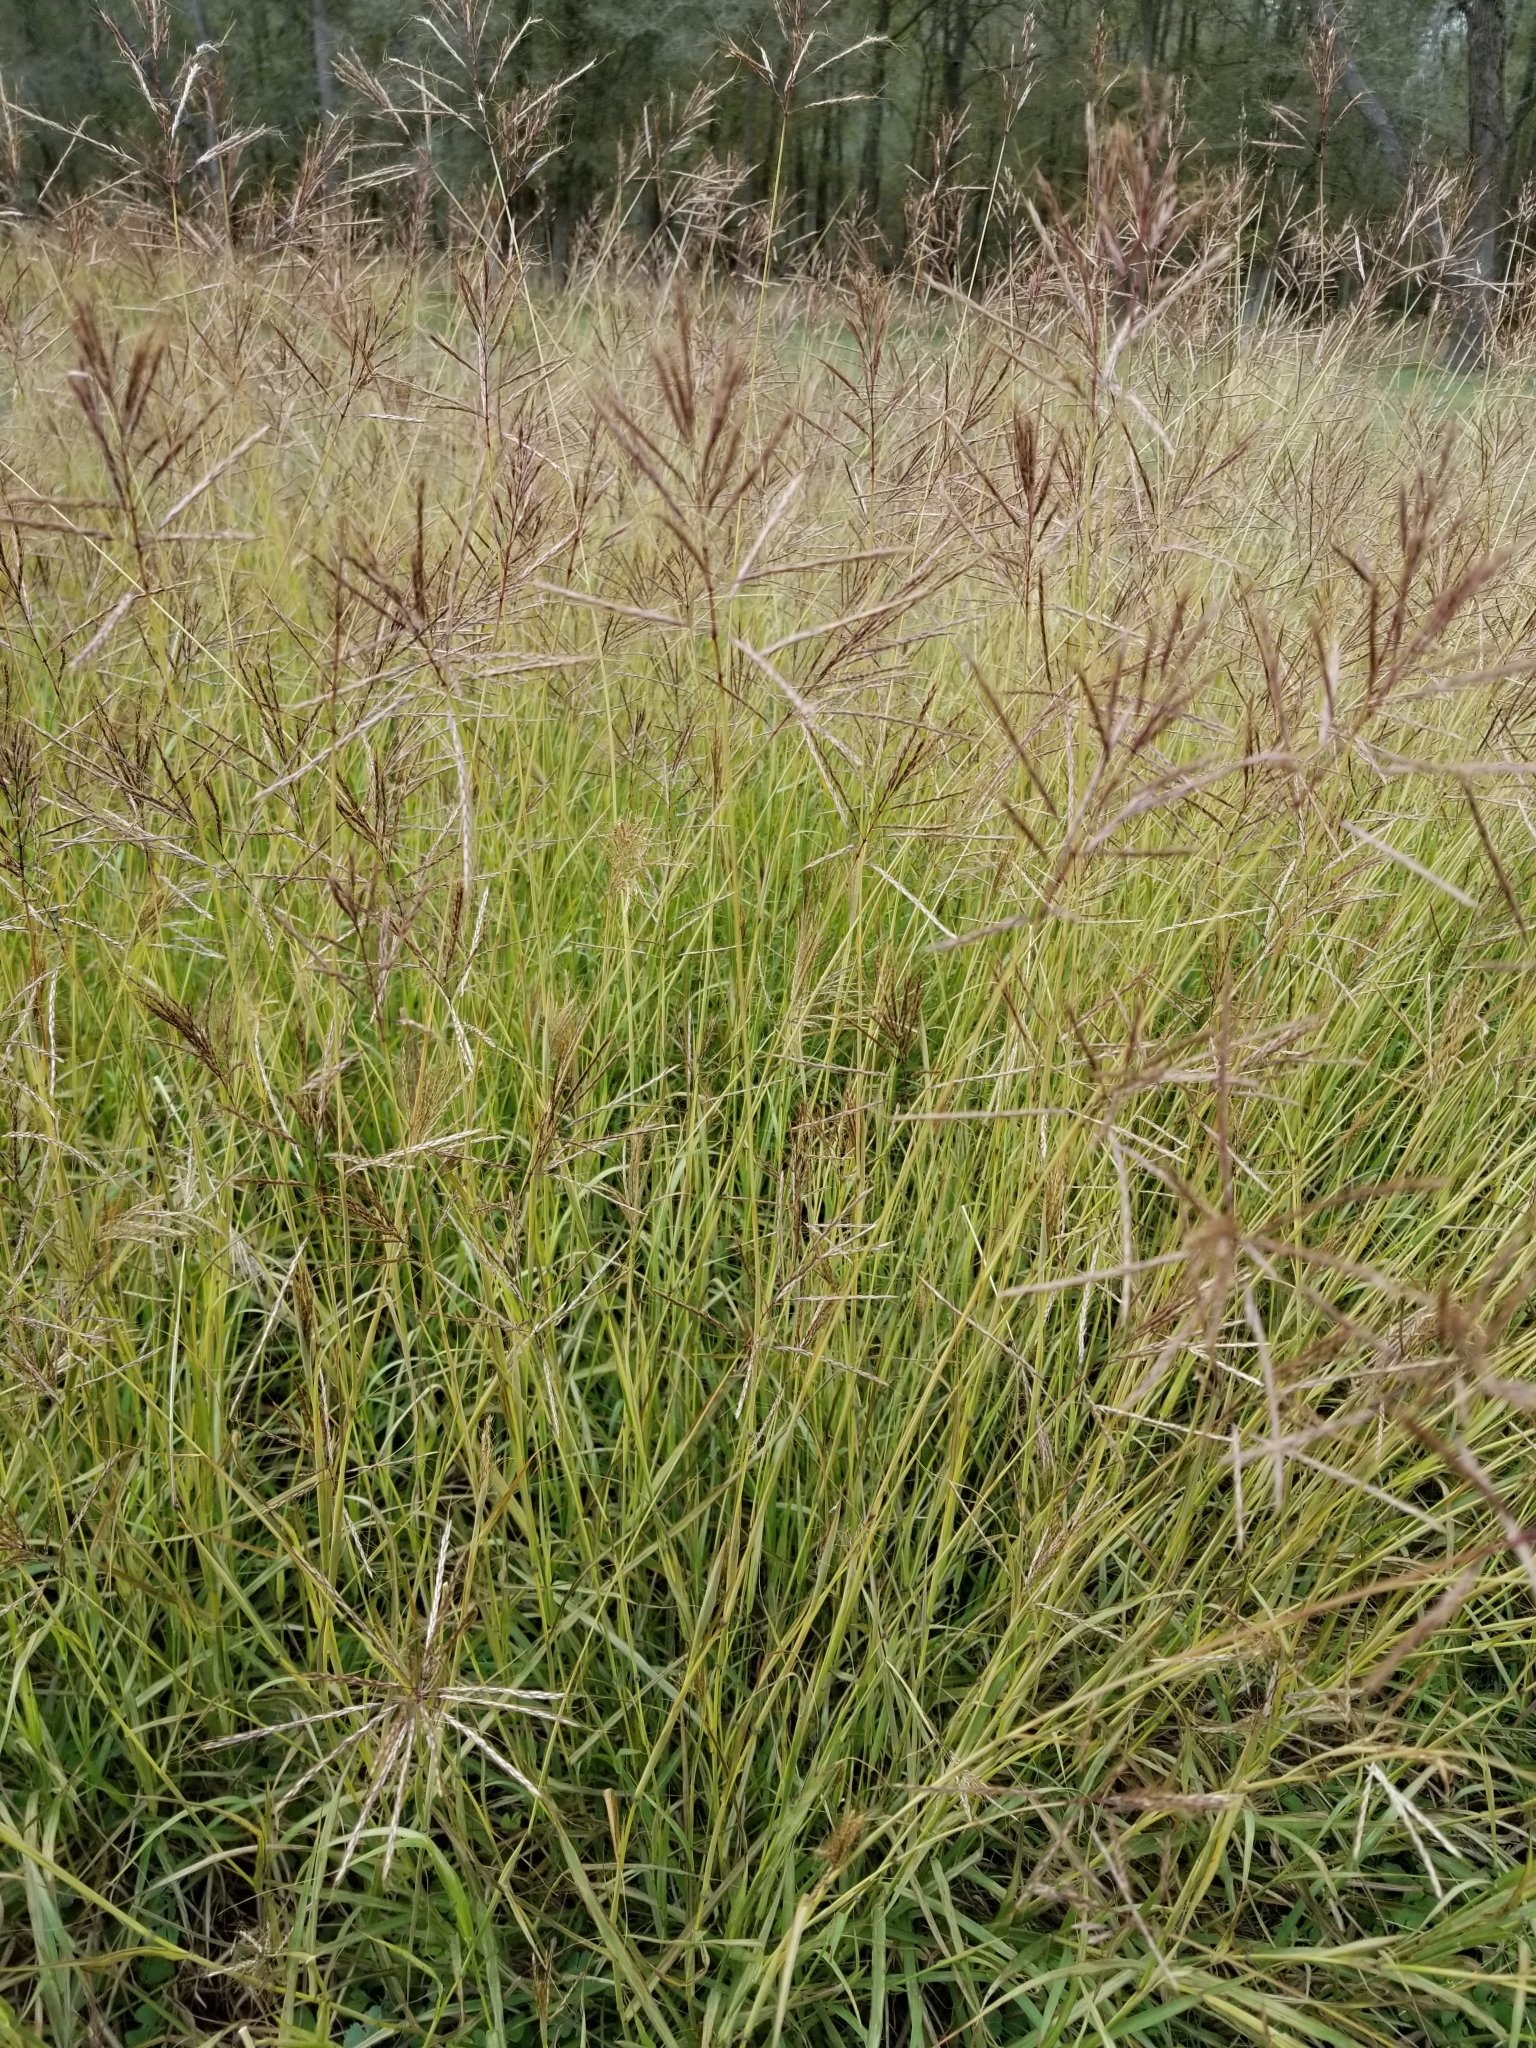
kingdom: Plantae
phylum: Tracheophyta
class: Liliopsida
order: Poales
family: Poaceae
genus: Bothriochloa
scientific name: Bothriochloa bladhii
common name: Caucasian bluestem
